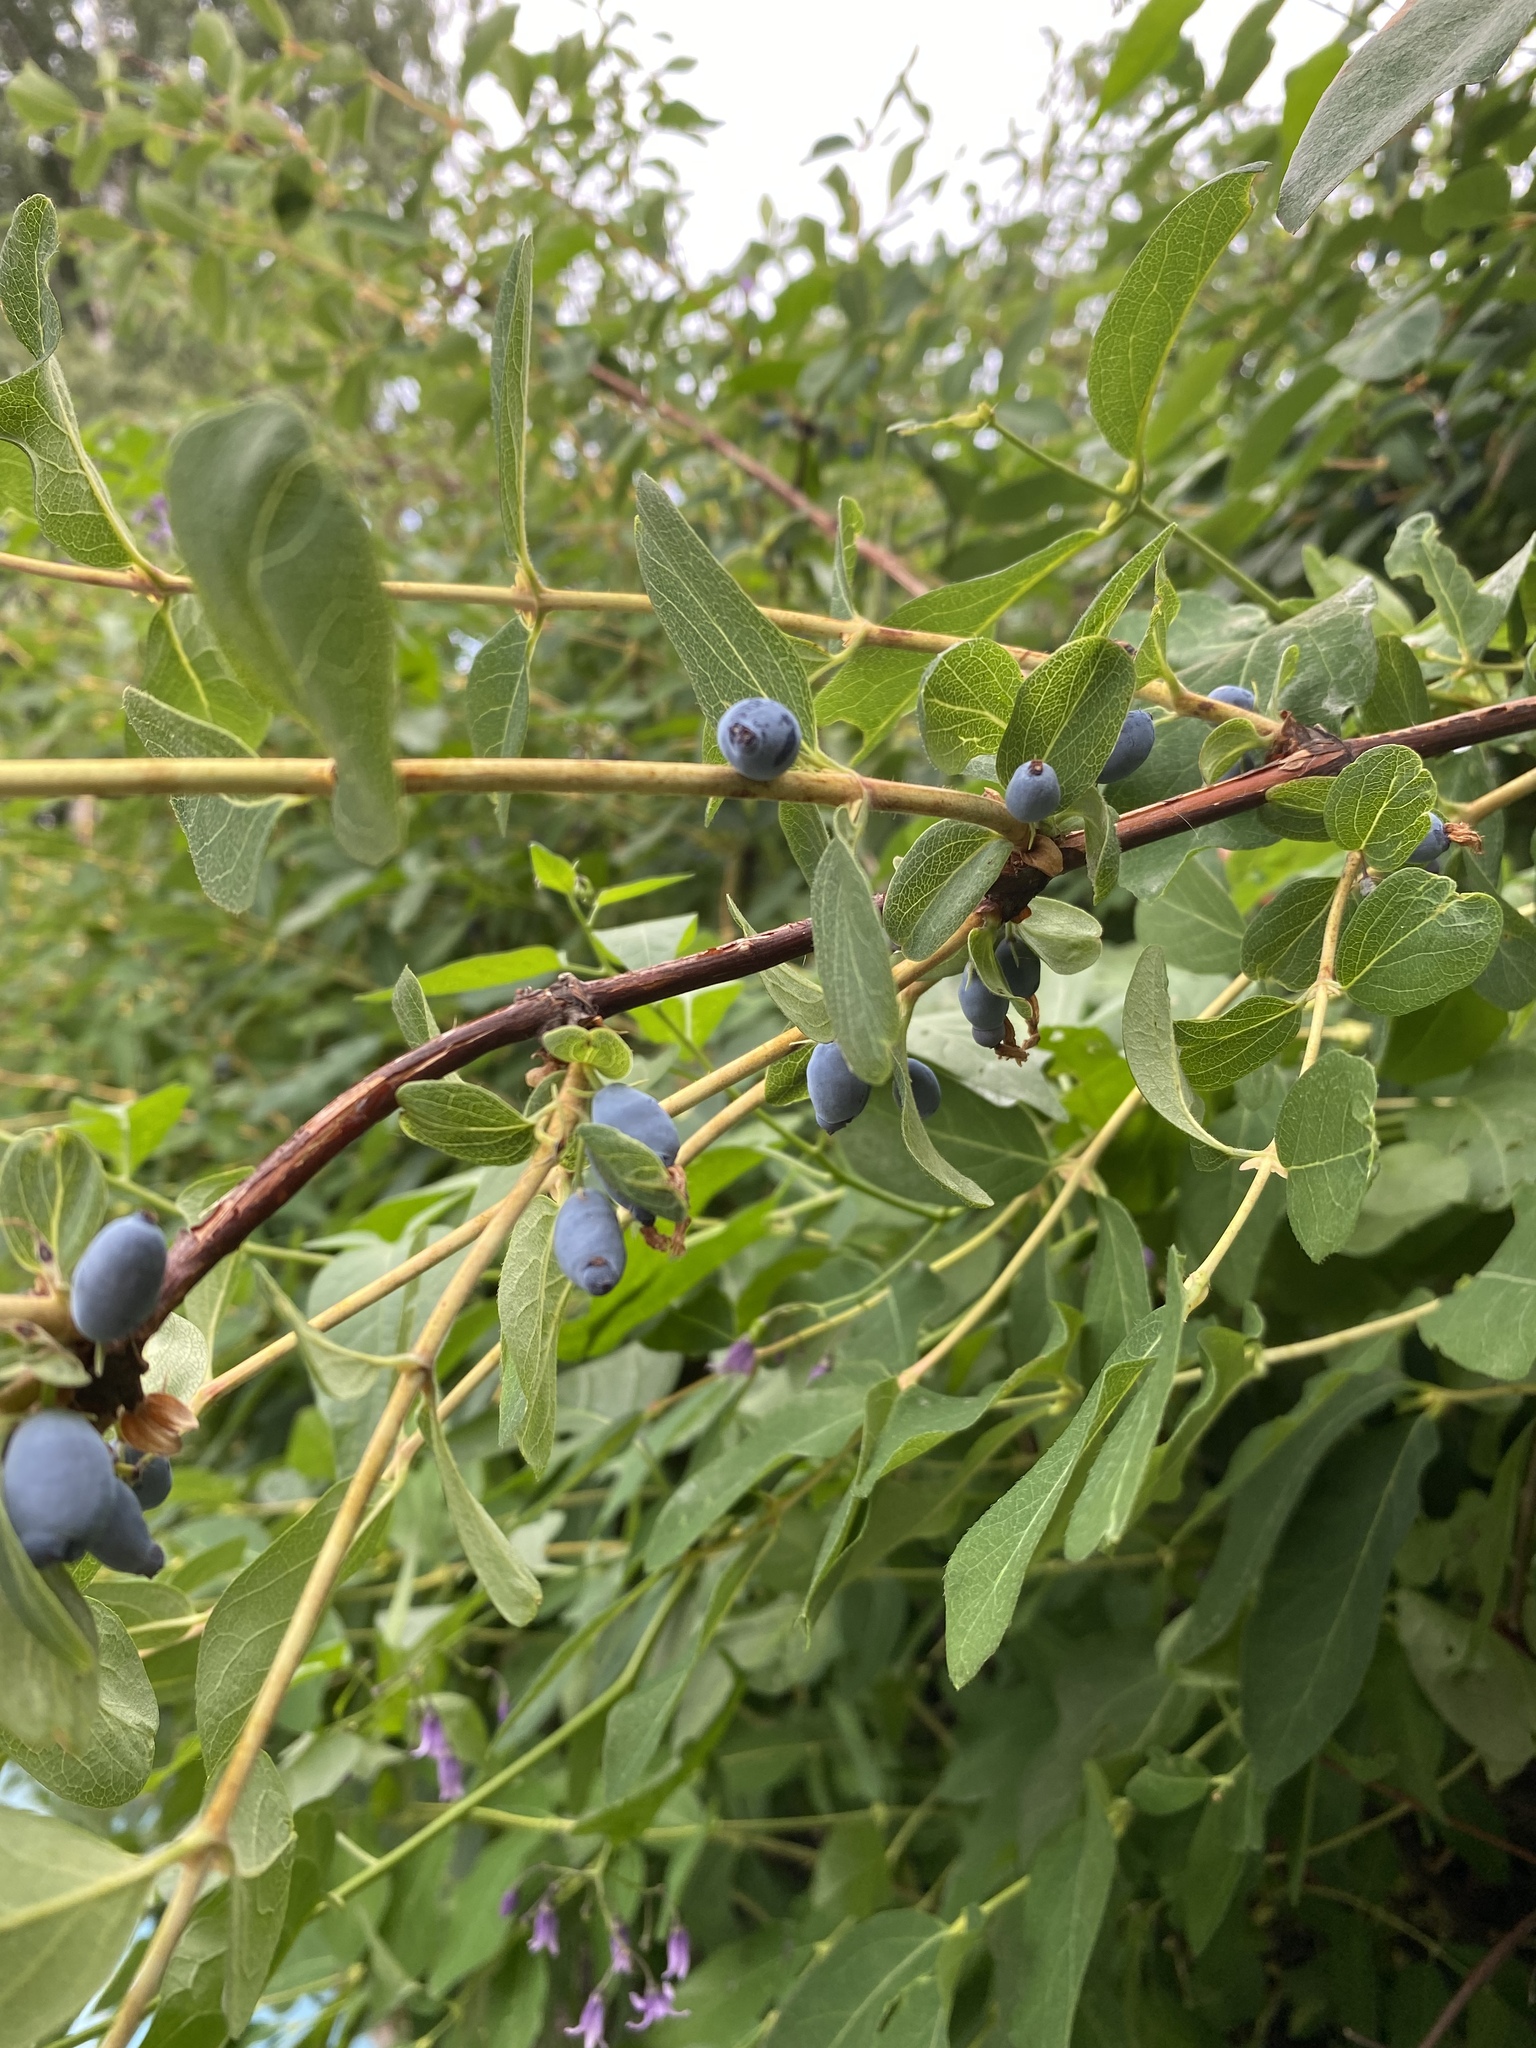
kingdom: Plantae
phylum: Tracheophyta
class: Magnoliopsida
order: Dipsacales
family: Caprifoliaceae
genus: Lonicera
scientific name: Lonicera caerulea
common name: Blue honeysuckle
